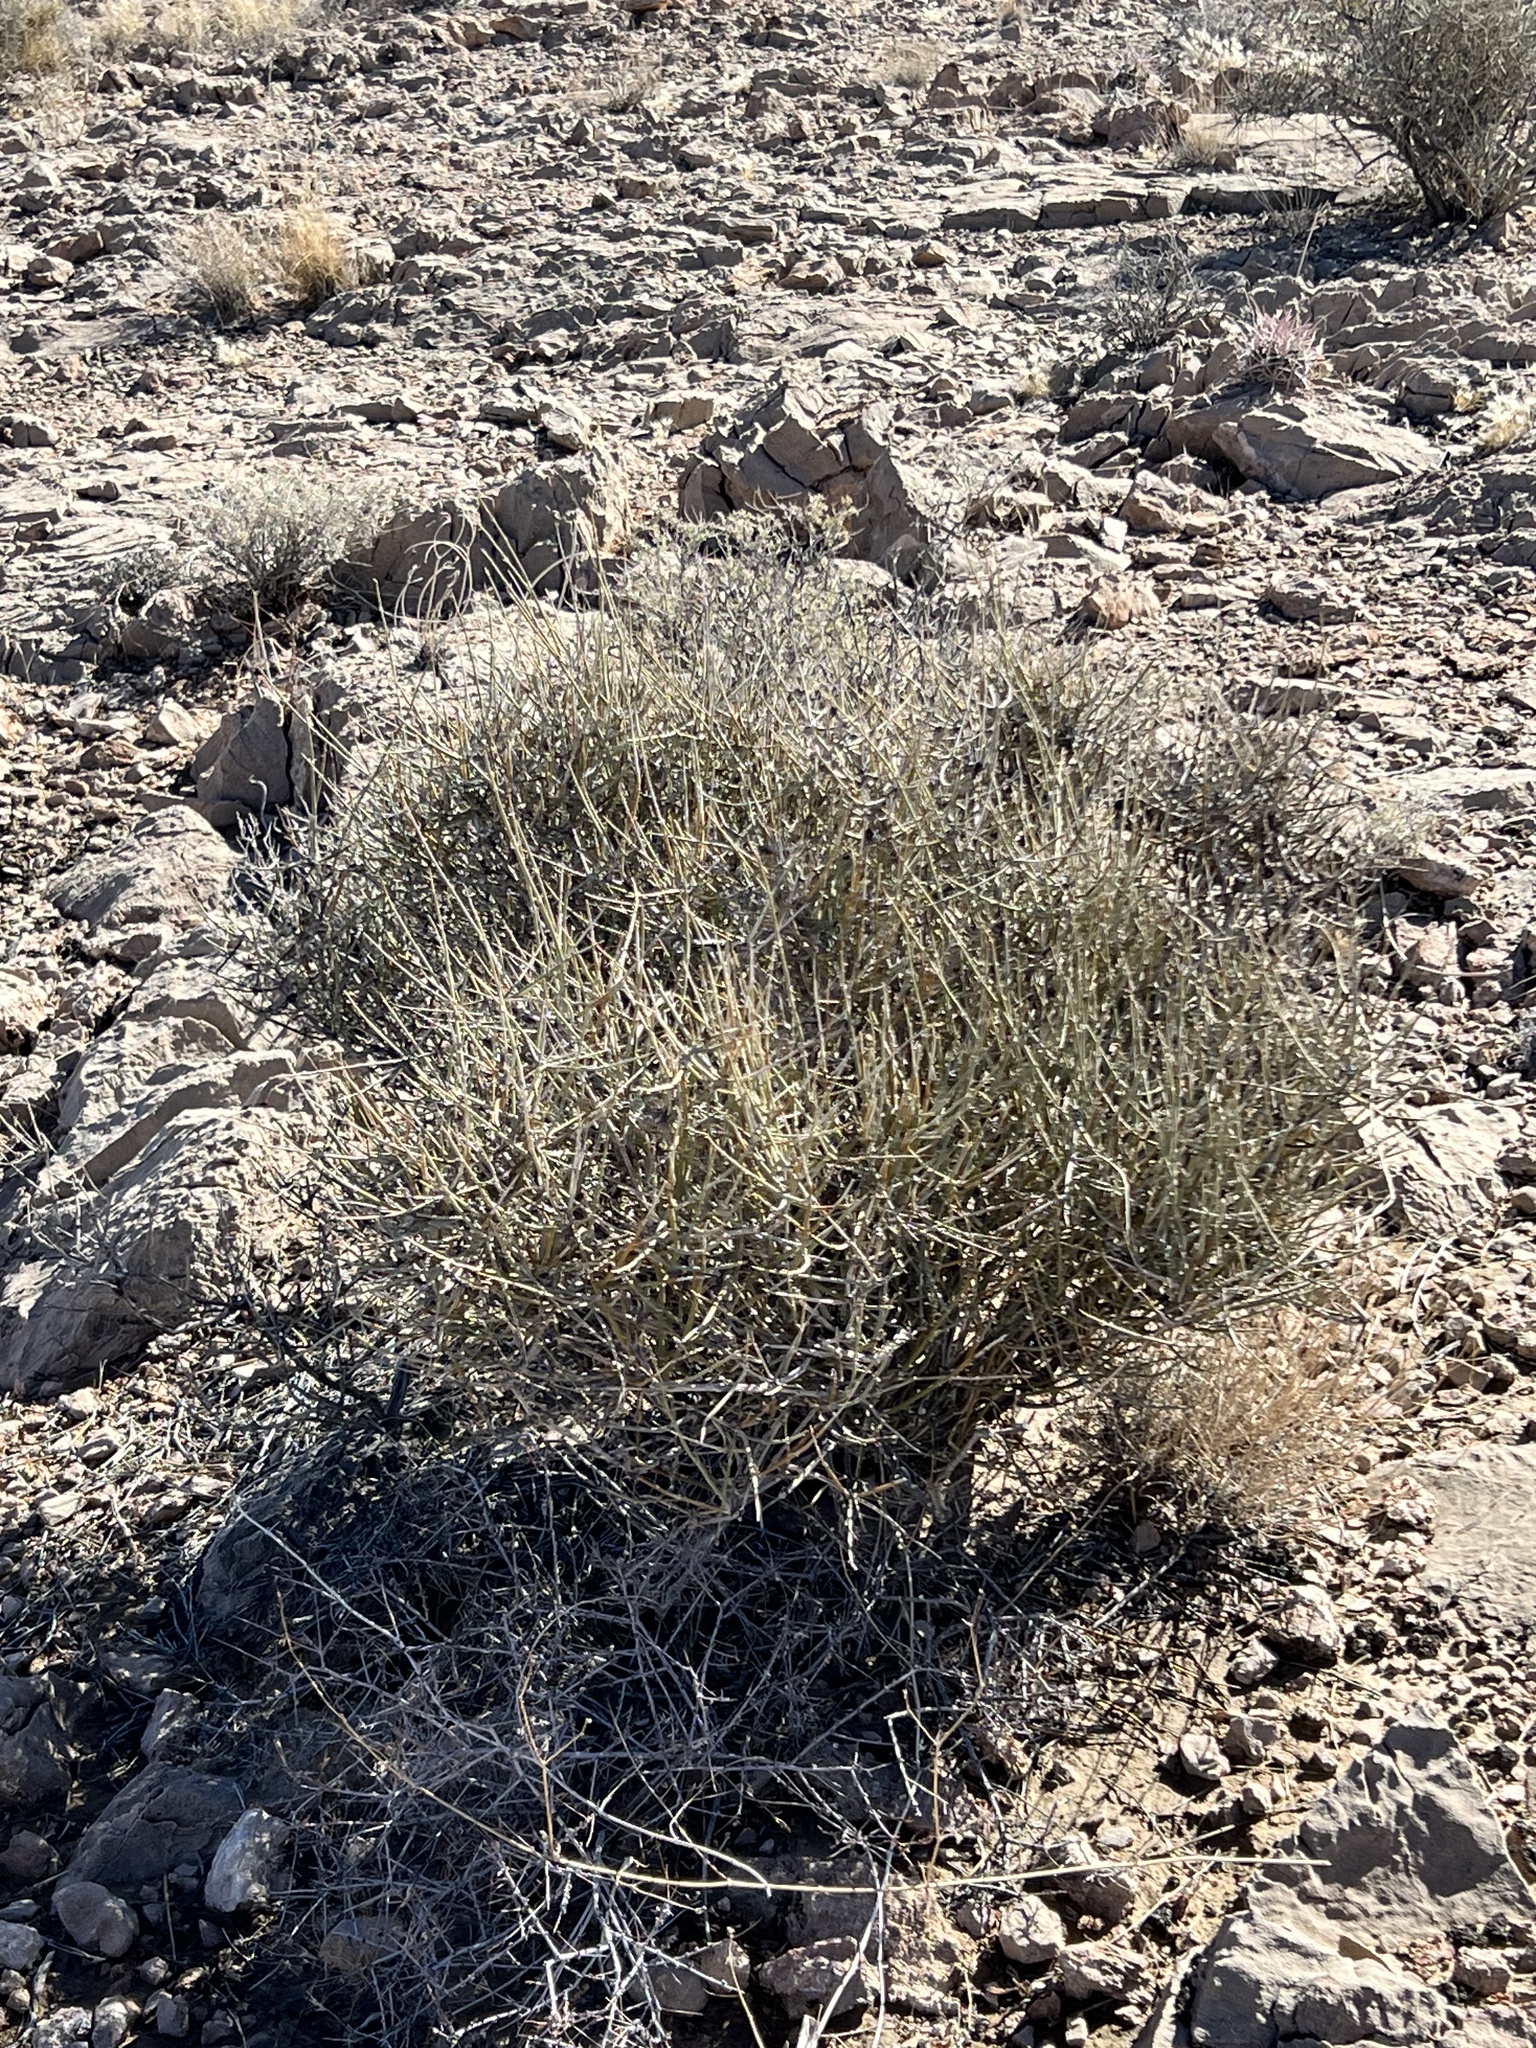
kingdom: Plantae
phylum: Tracheophyta
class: Gnetopsida
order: Ephedrales
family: Ephedraceae
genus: Ephedra
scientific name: Ephedra nevadensis
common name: Gray ephedra
